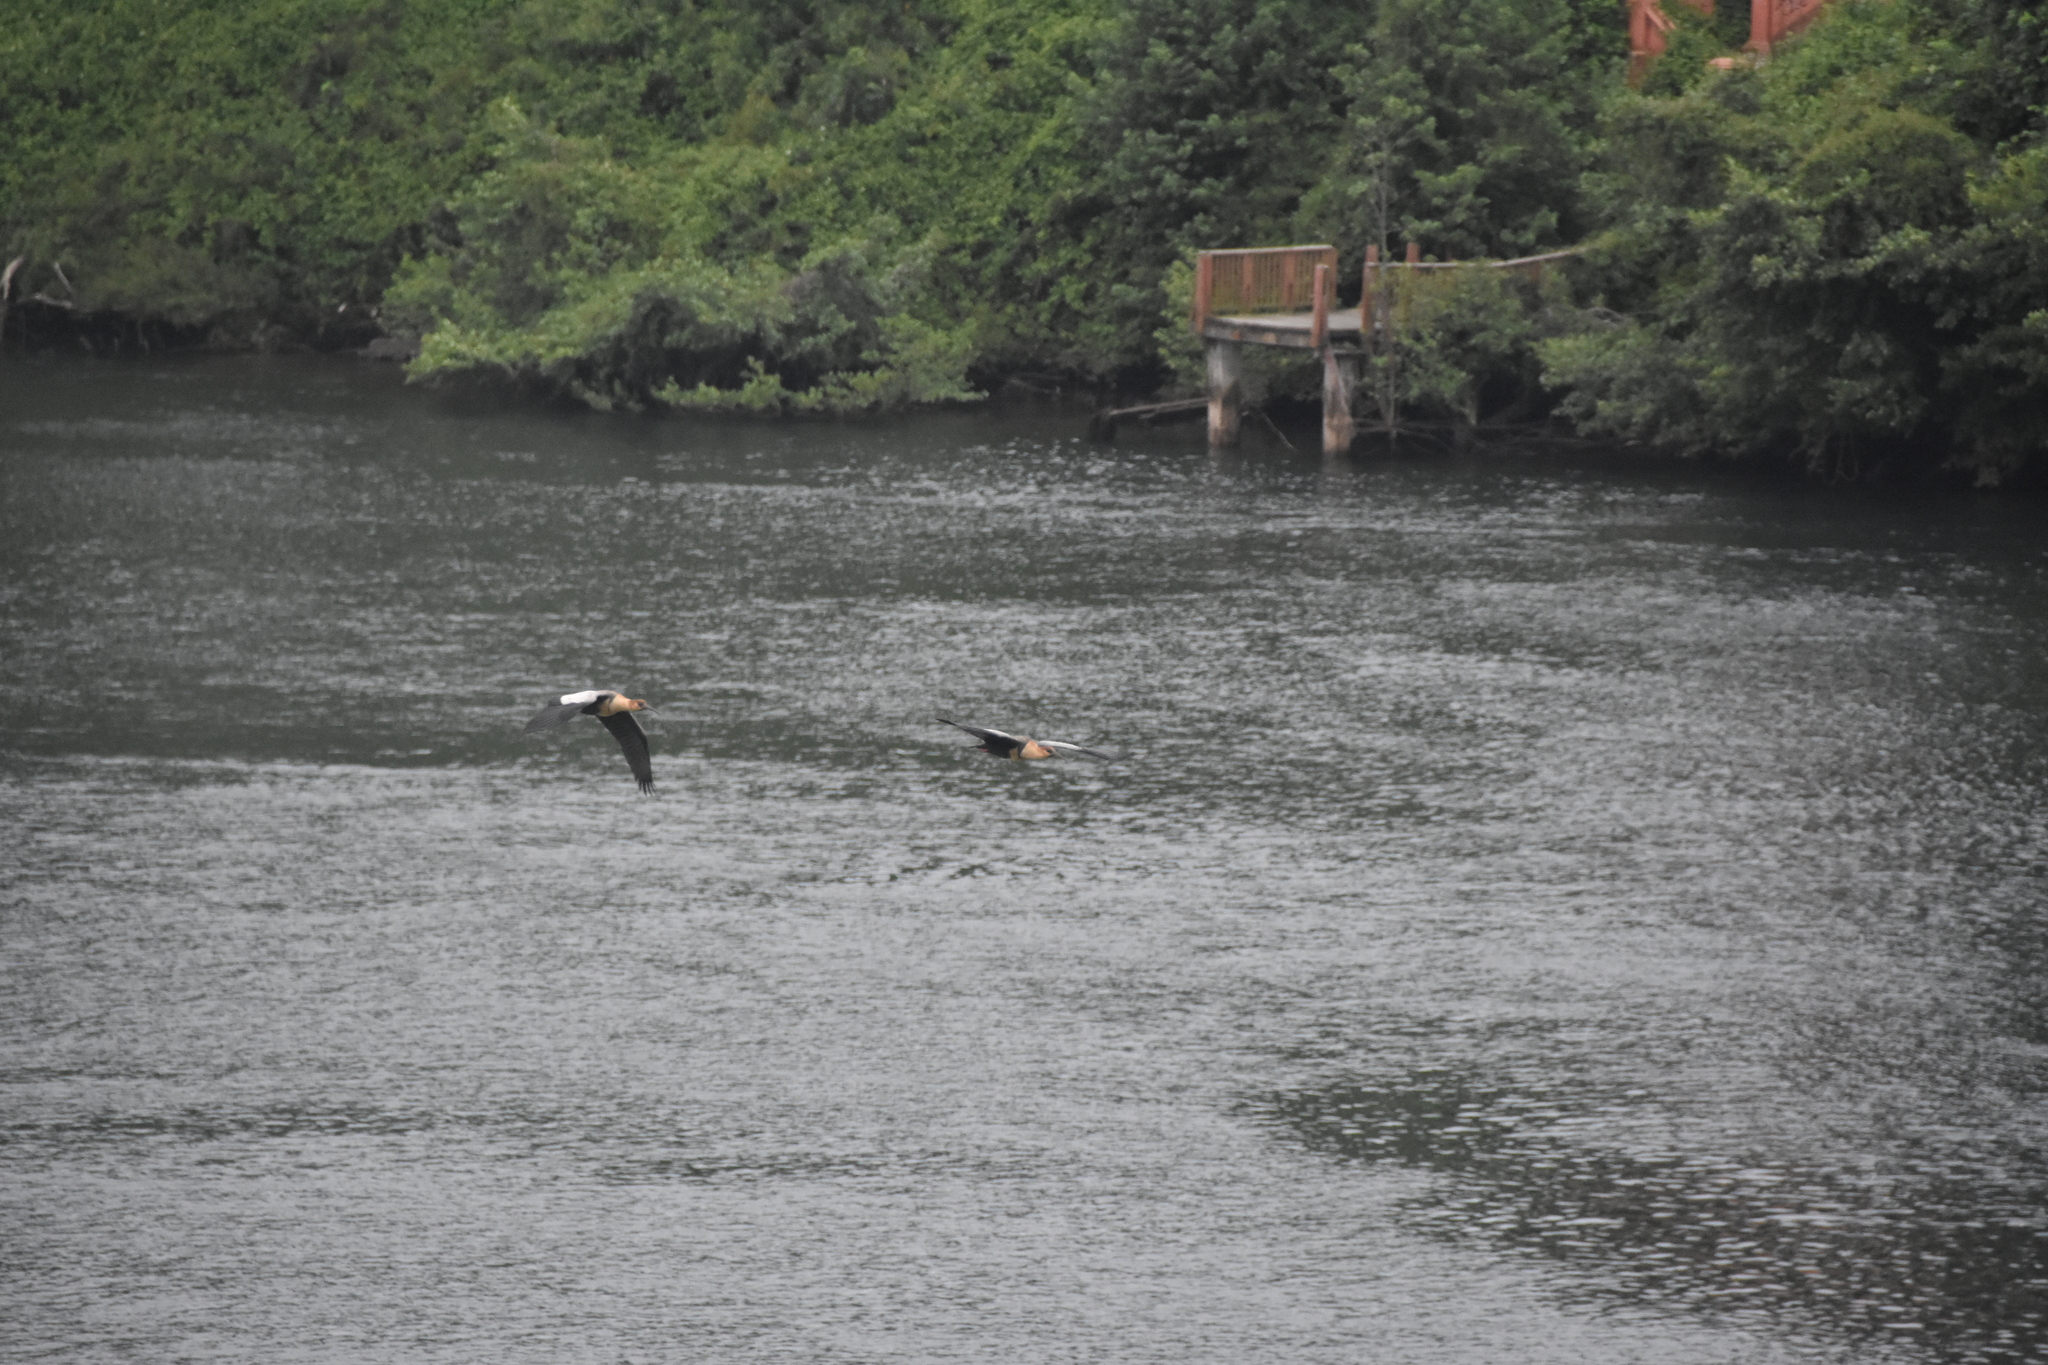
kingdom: Animalia
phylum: Chordata
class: Aves
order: Pelecaniformes
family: Threskiornithidae
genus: Theristicus
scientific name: Theristicus melanopis
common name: Black-faced ibis
